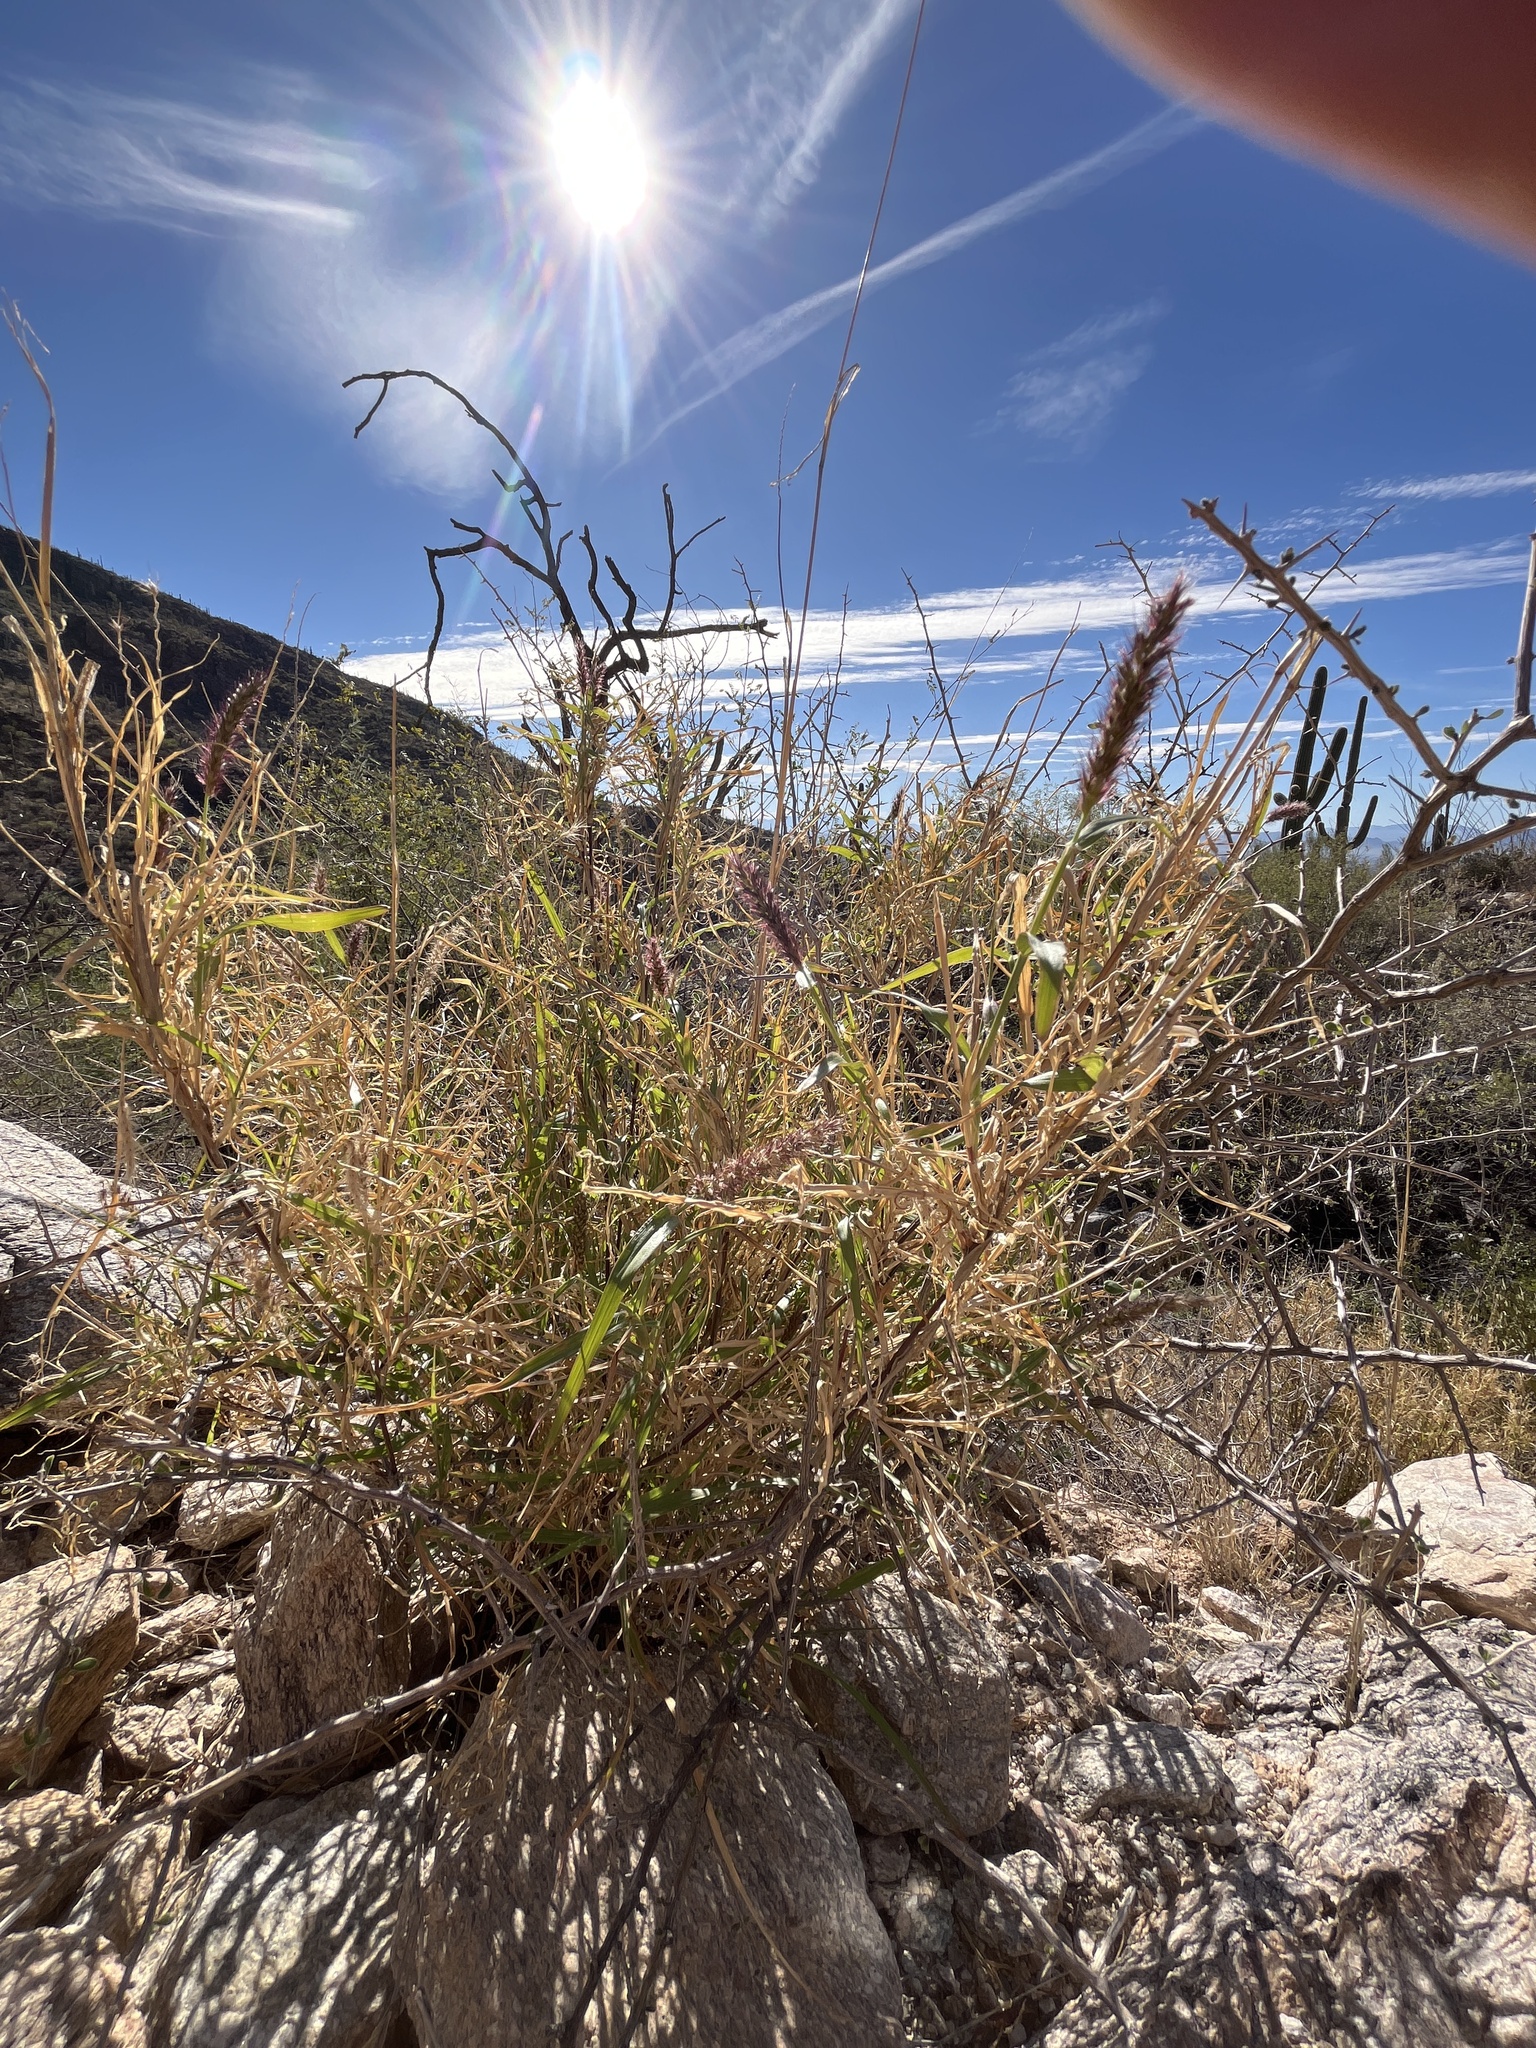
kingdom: Plantae
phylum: Tracheophyta
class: Liliopsida
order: Poales
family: Poaceae
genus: Cenchrus
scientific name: Cenchrus ciliaris
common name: Buffelgrass
